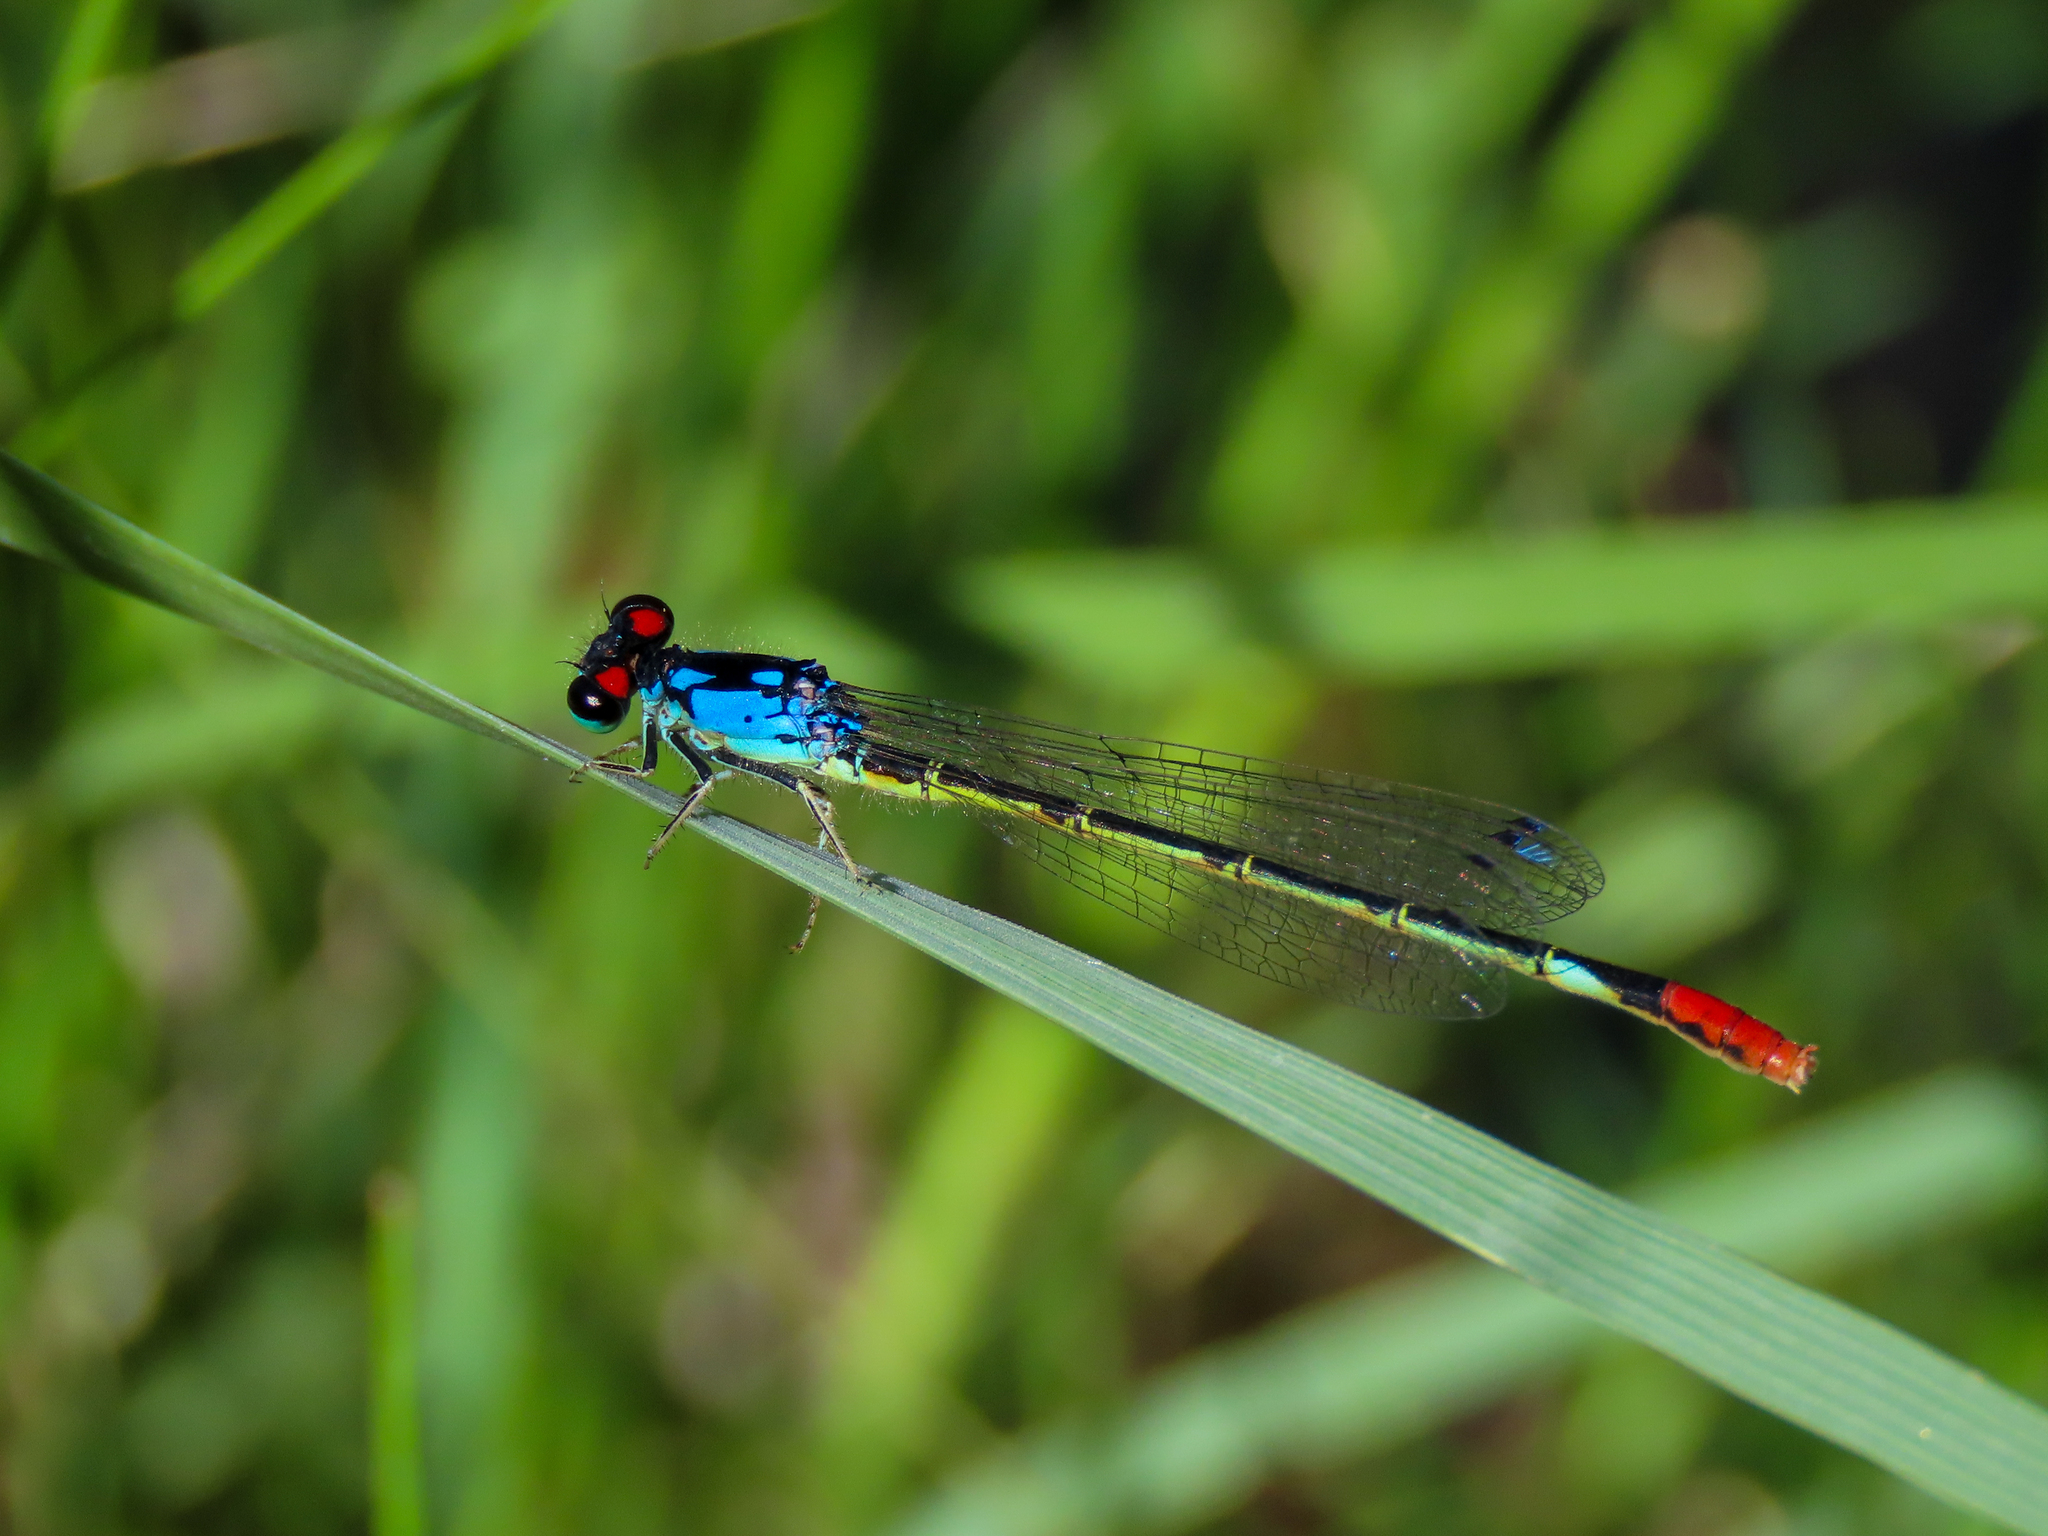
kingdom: Animalia
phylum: Arthropoda
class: Insecta
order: Odonata
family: Coenagrionidae
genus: Hesperagrion
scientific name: Hesperagrion heterodoxum
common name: Painted damsel
